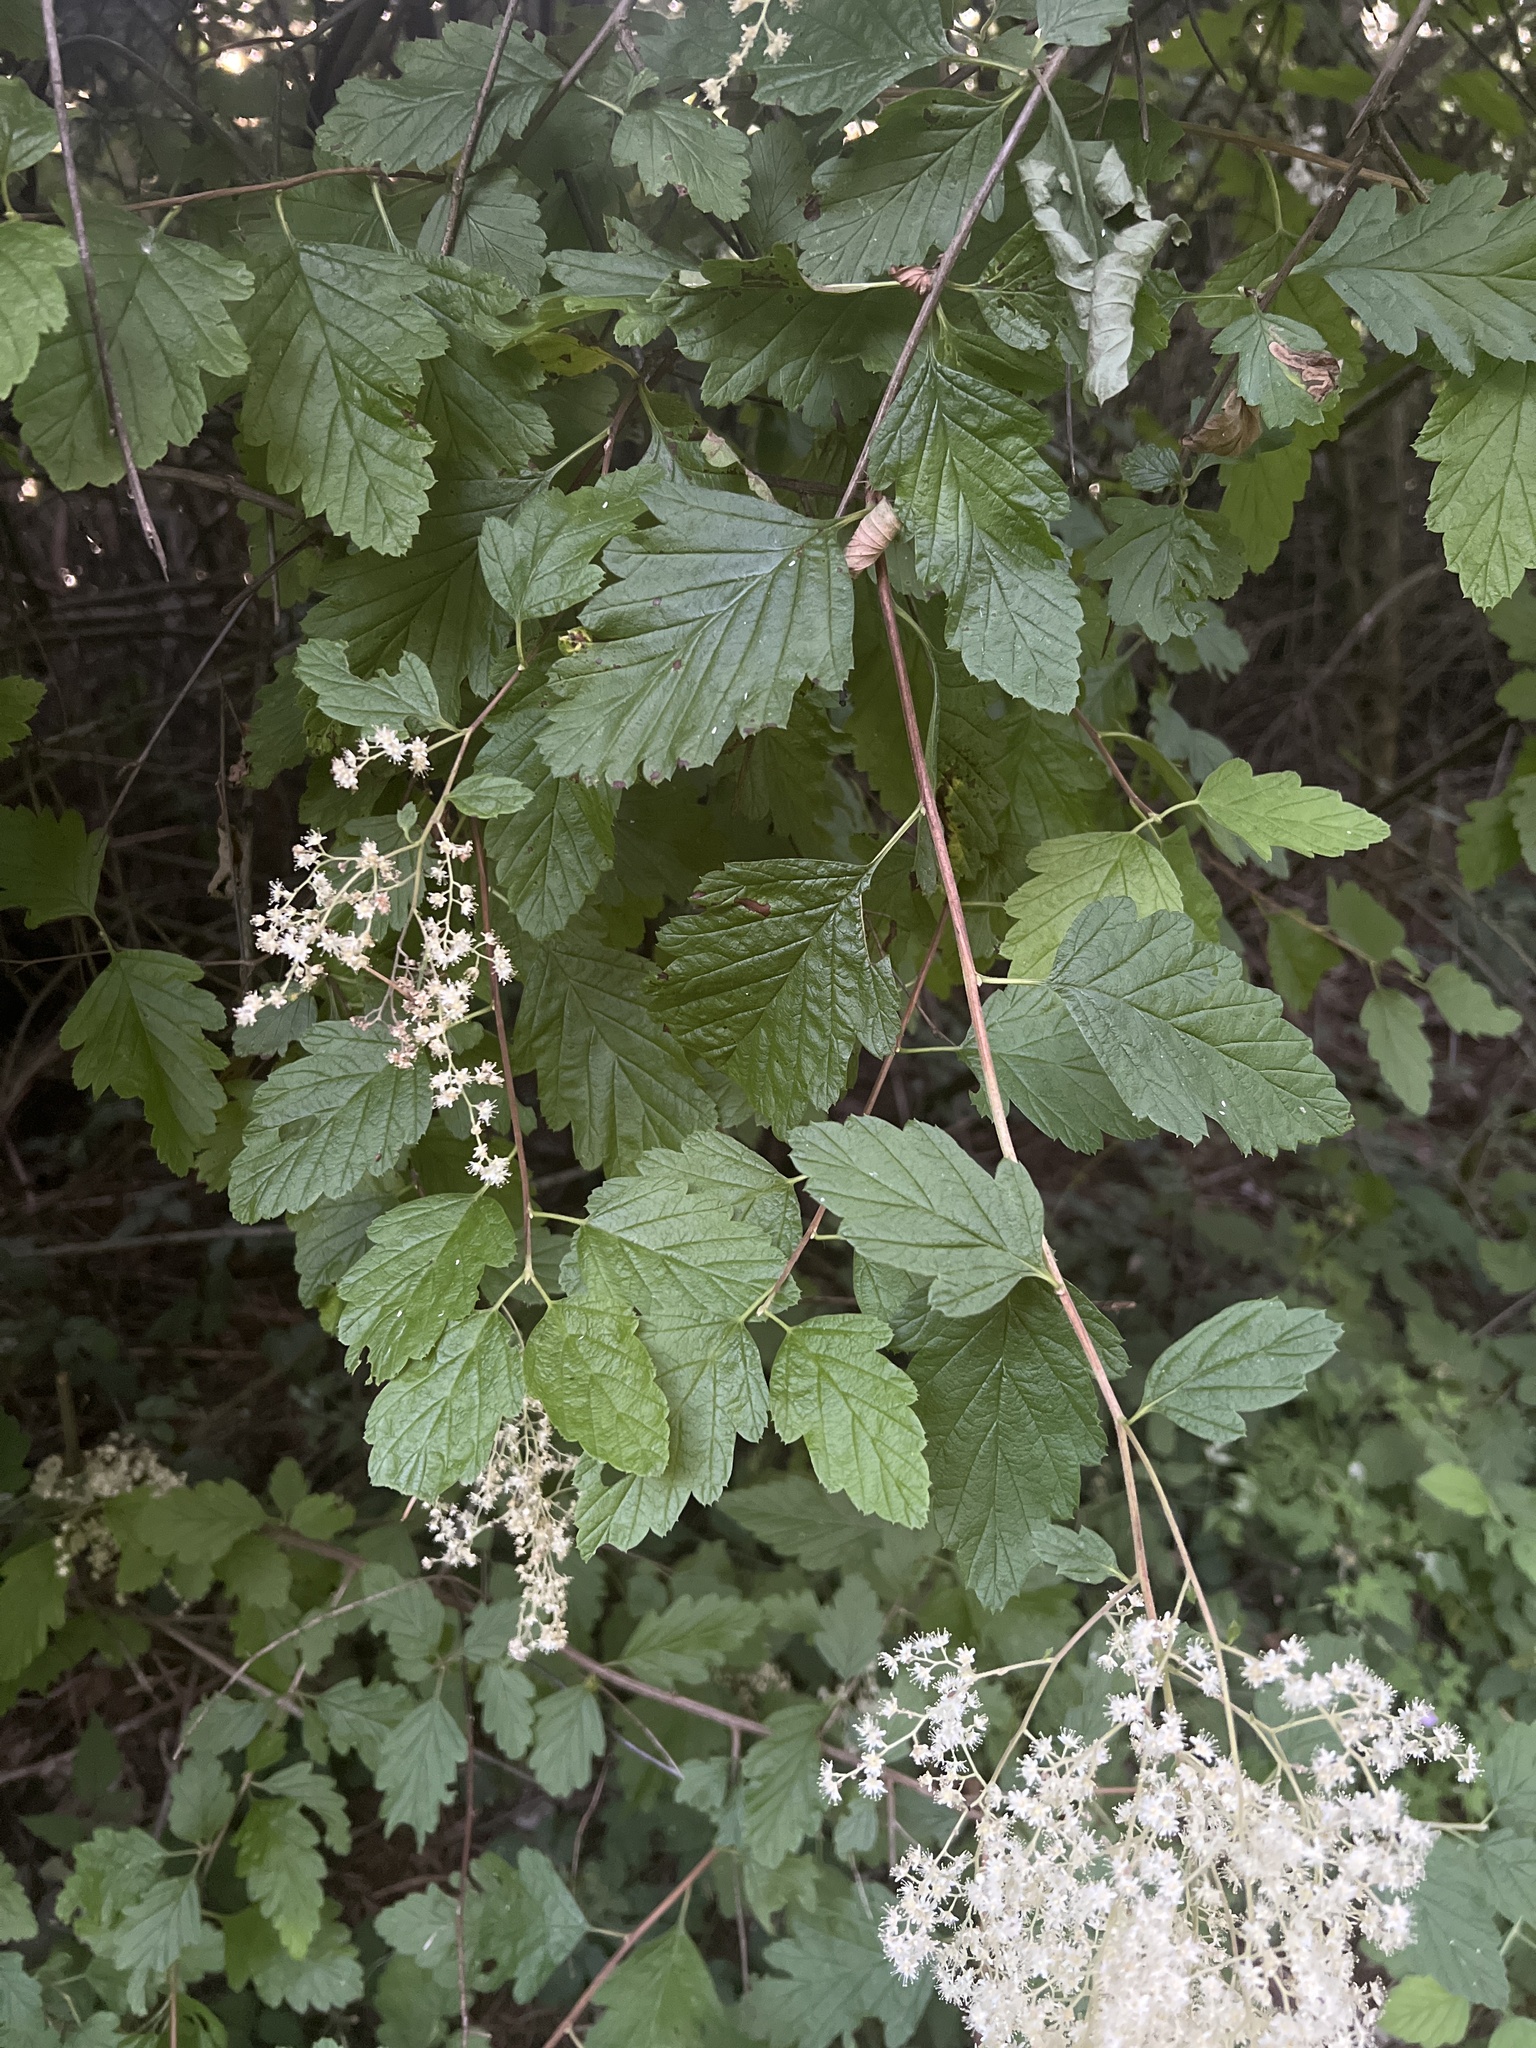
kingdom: Plantae
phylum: Tracheophyta
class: Magnoliopsida
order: Rosales
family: Rosaceae
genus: Holodiscus
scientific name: Holodiscus discolor
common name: Oceanspray
